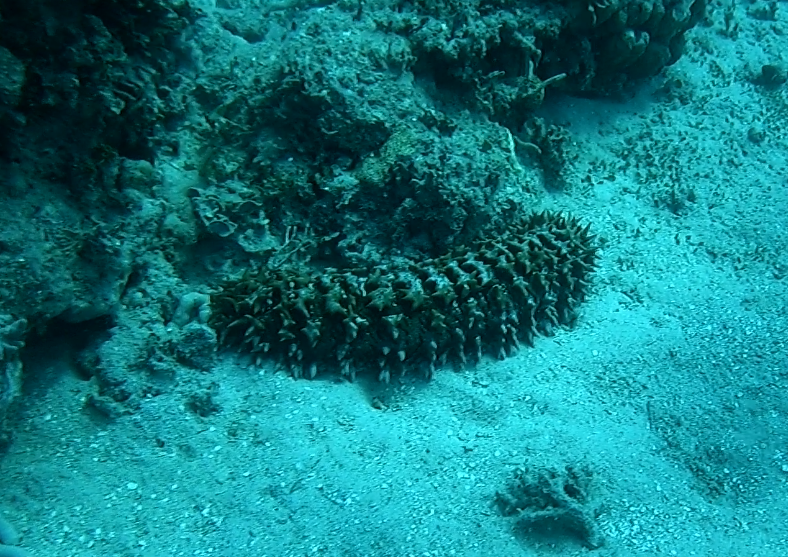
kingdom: Animalia
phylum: Echinodermata
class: Holothuroidea
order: Synallactida
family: Stichopodidae
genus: Thelenota
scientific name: Thelenota ananas
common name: Prickly redfish
